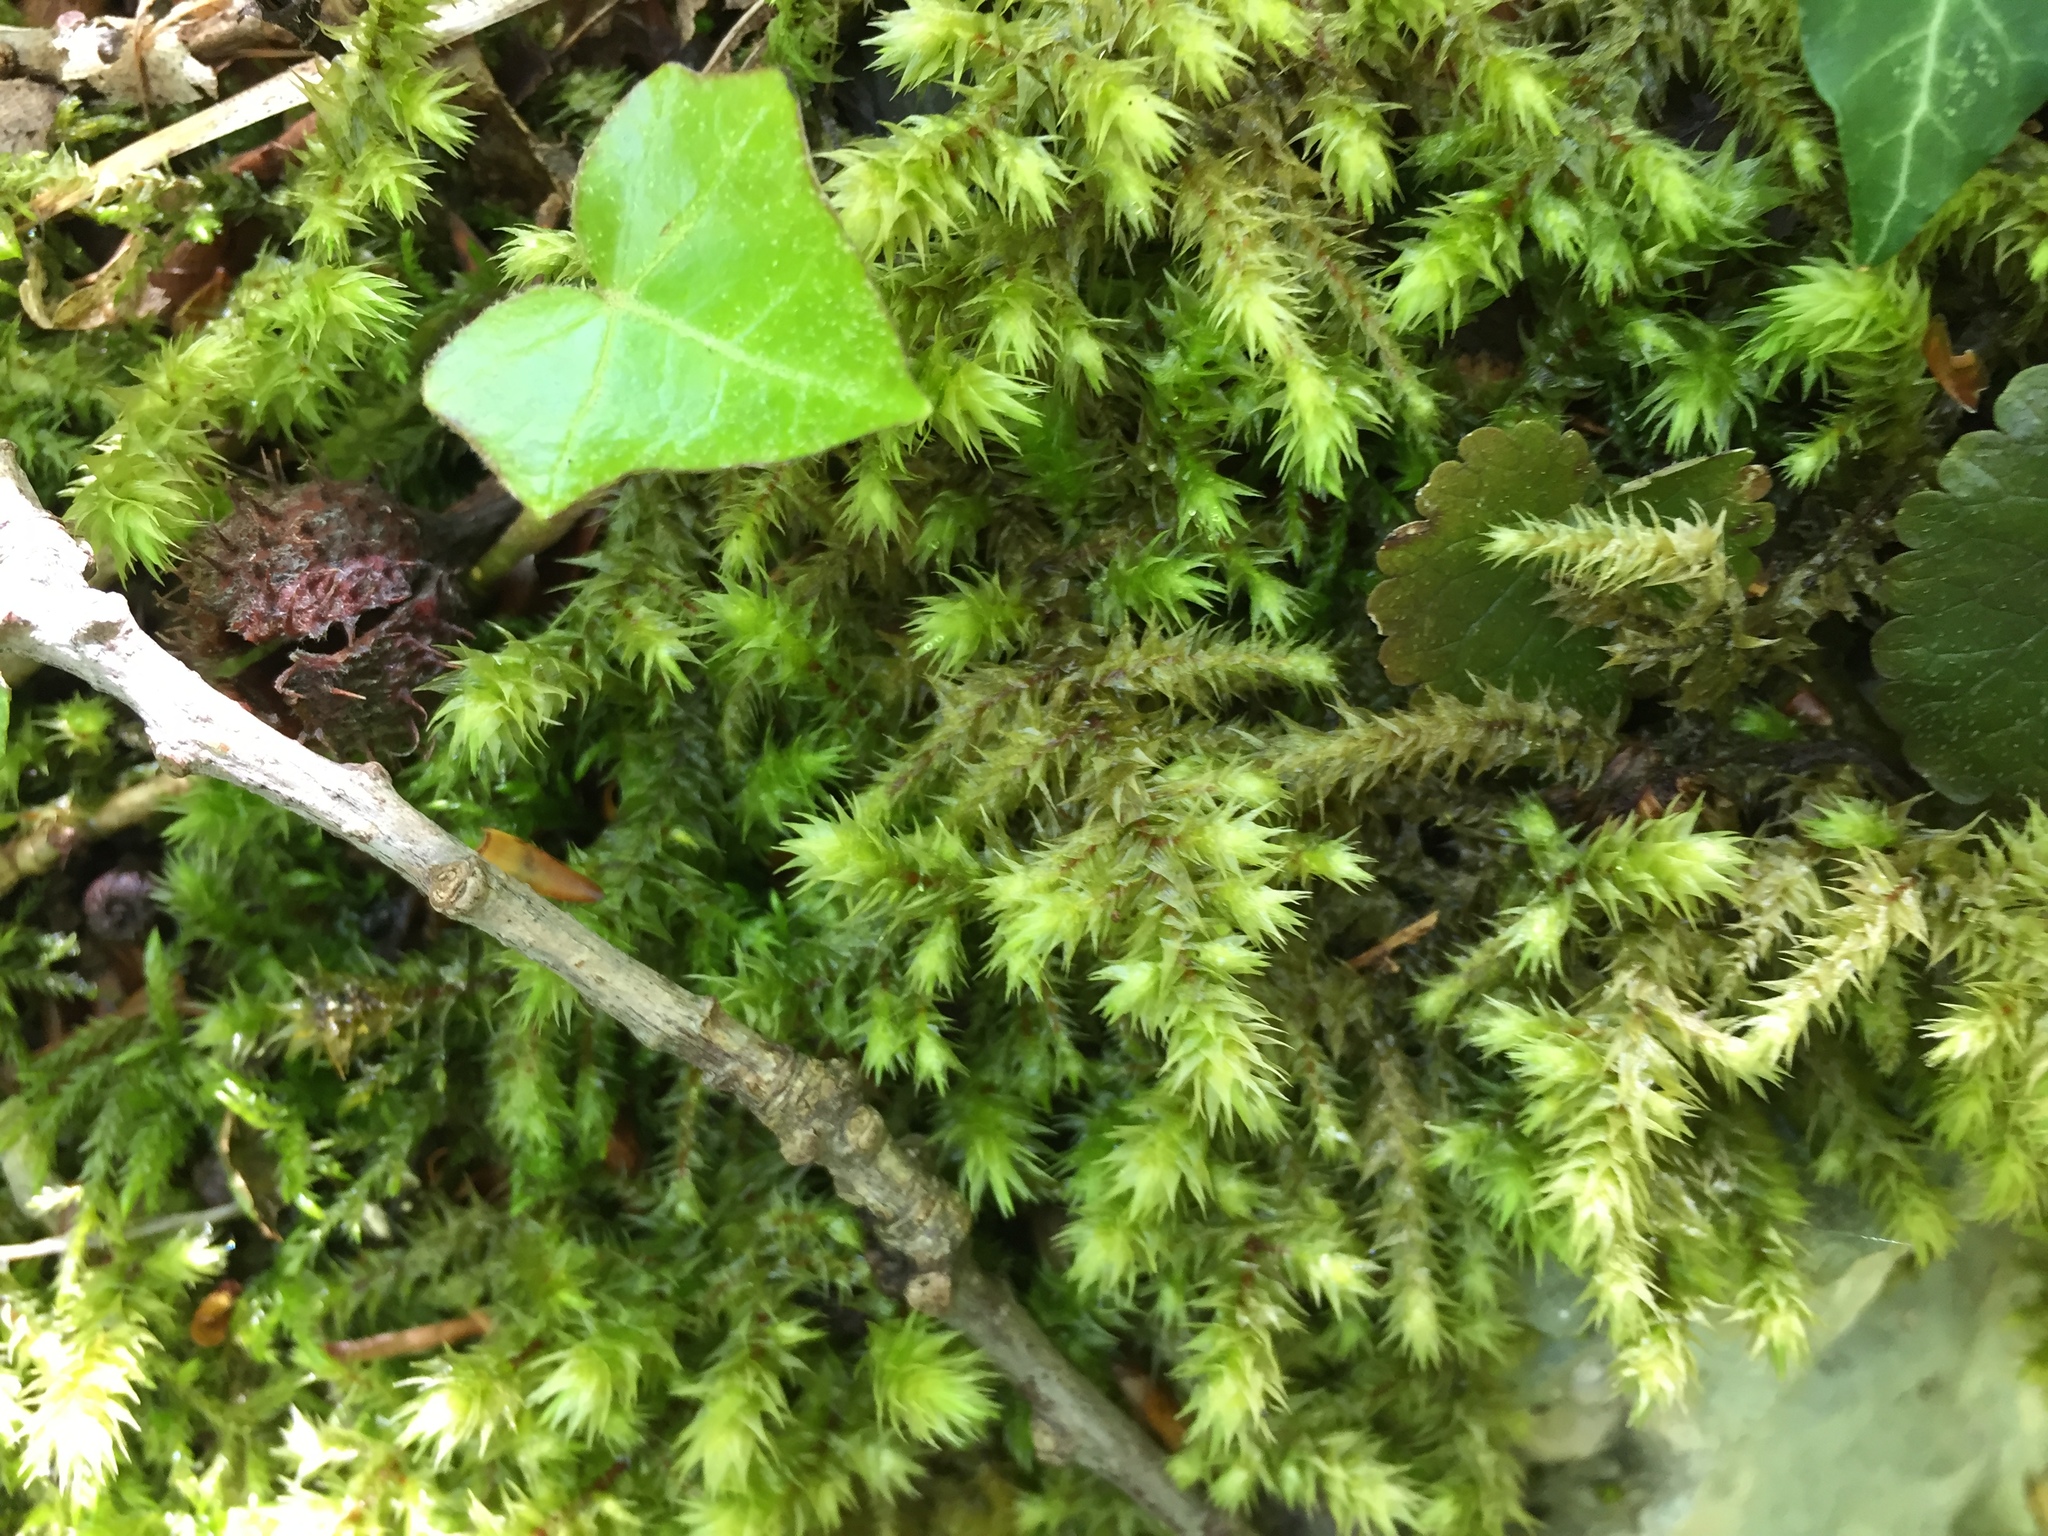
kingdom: Plantae
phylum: Bryophyta
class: Bryopsida
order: Hypnales
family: Hylocomiaceae
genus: Hylocomiadelphus
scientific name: Hylocomiadelphus triquetrus
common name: Rough goose neck moss
